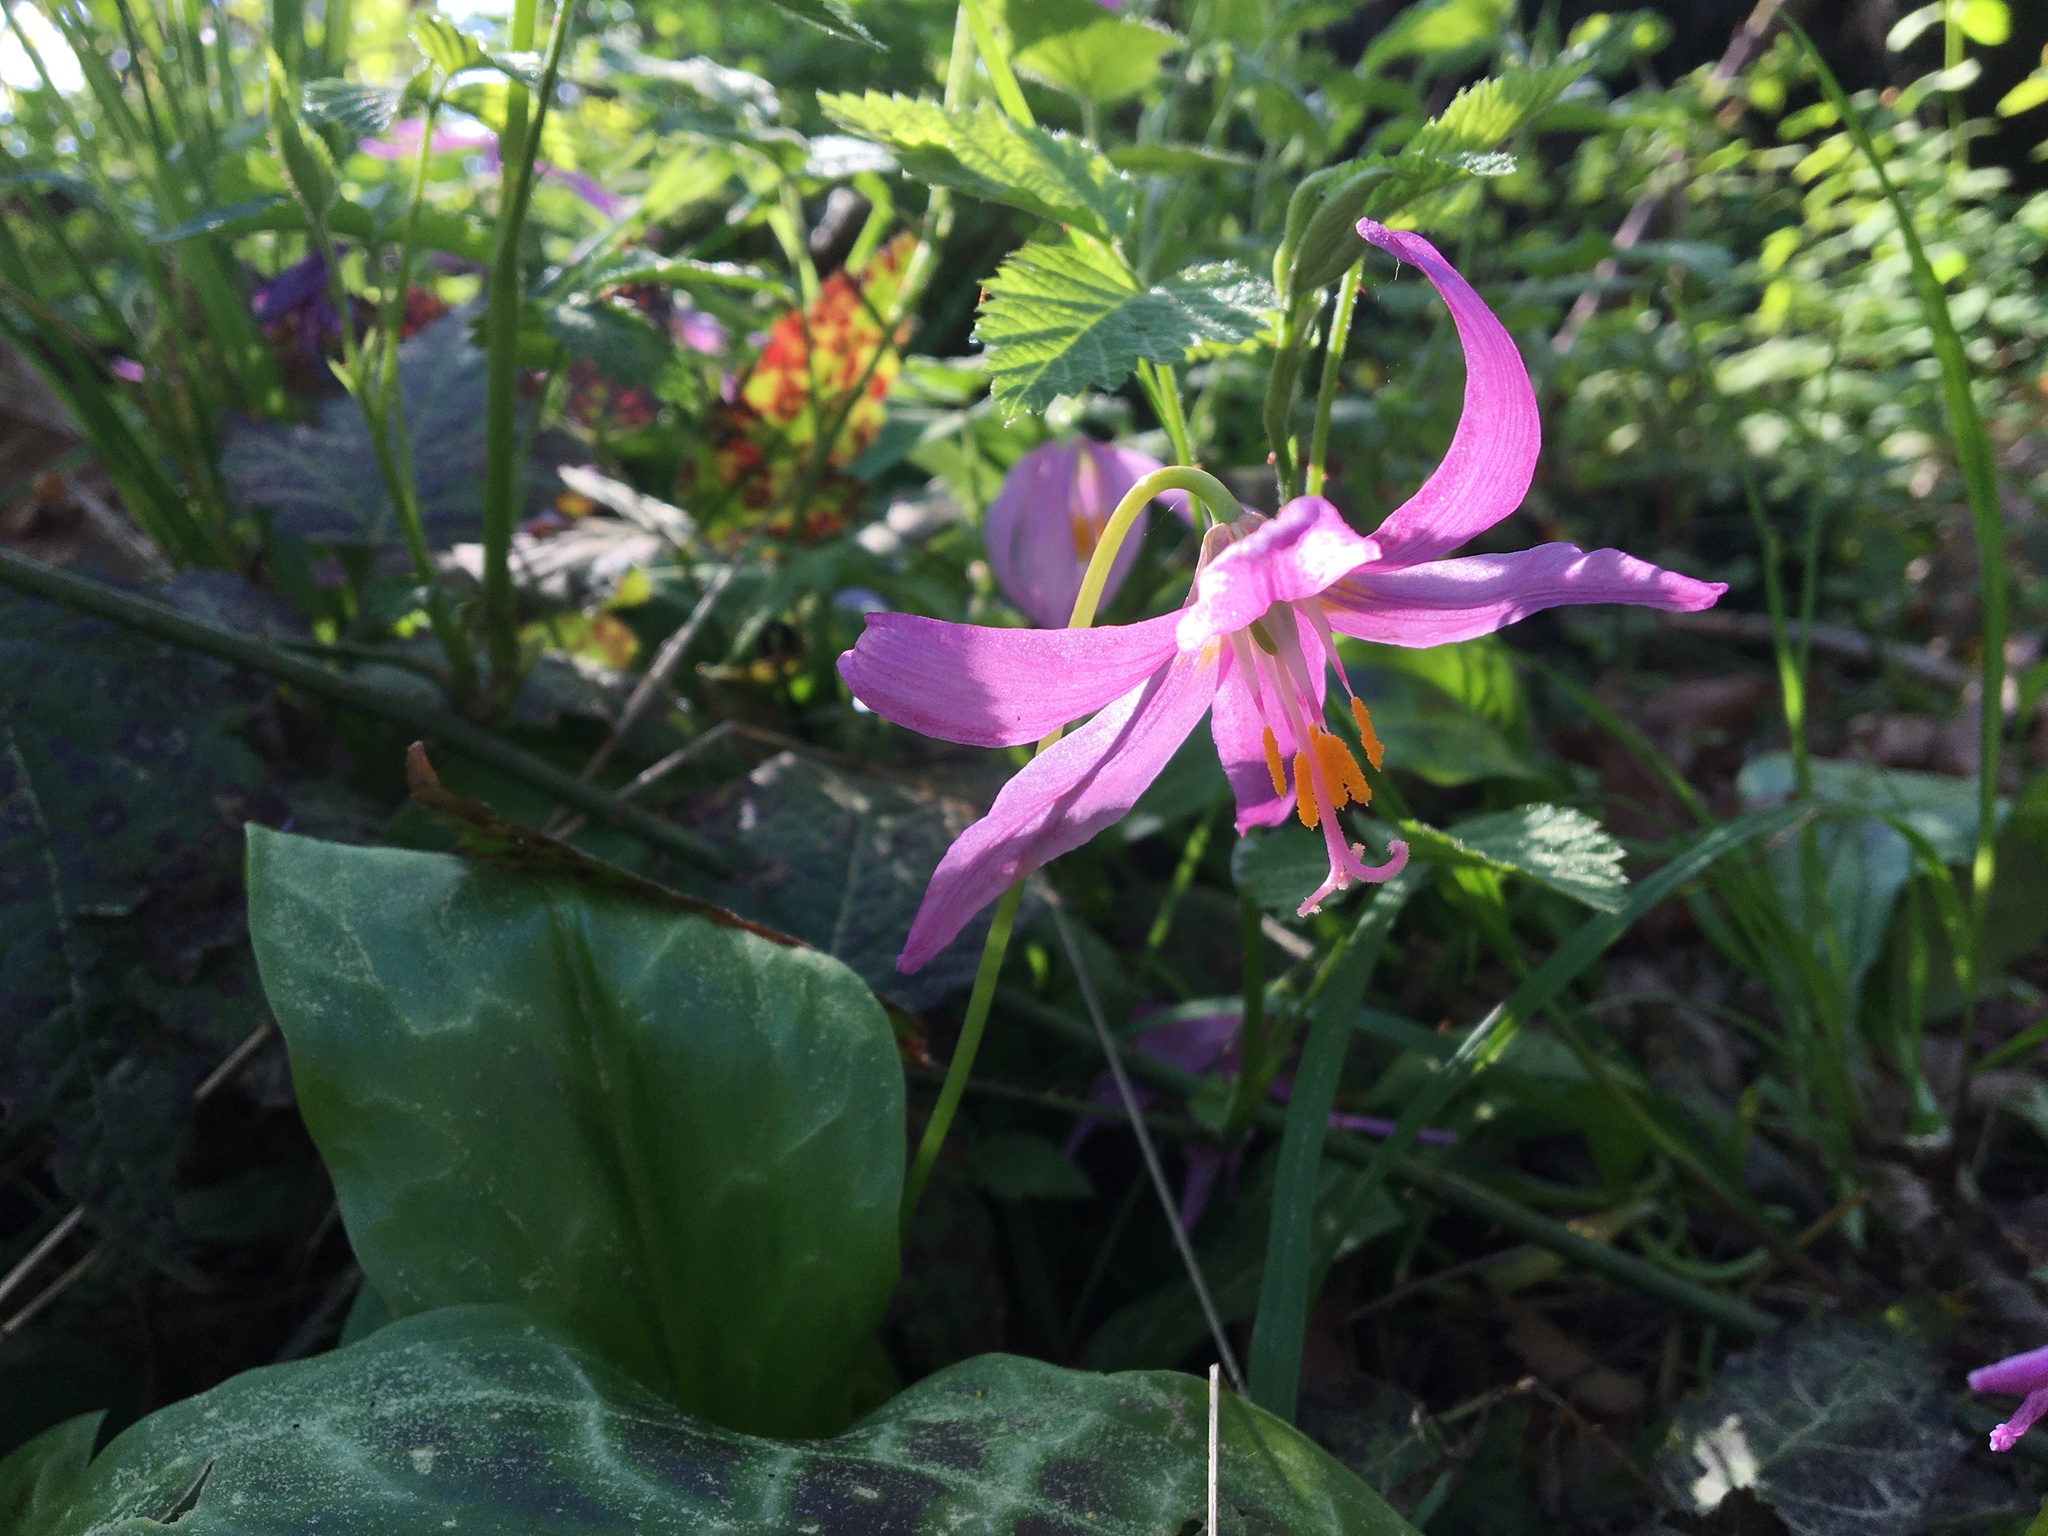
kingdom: Plantae
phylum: Tracheophyta
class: Liliopsida
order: Liliales
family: Liliaceae
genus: Erythronium
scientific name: Erythronium revolutum
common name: Pink fawn-lily
